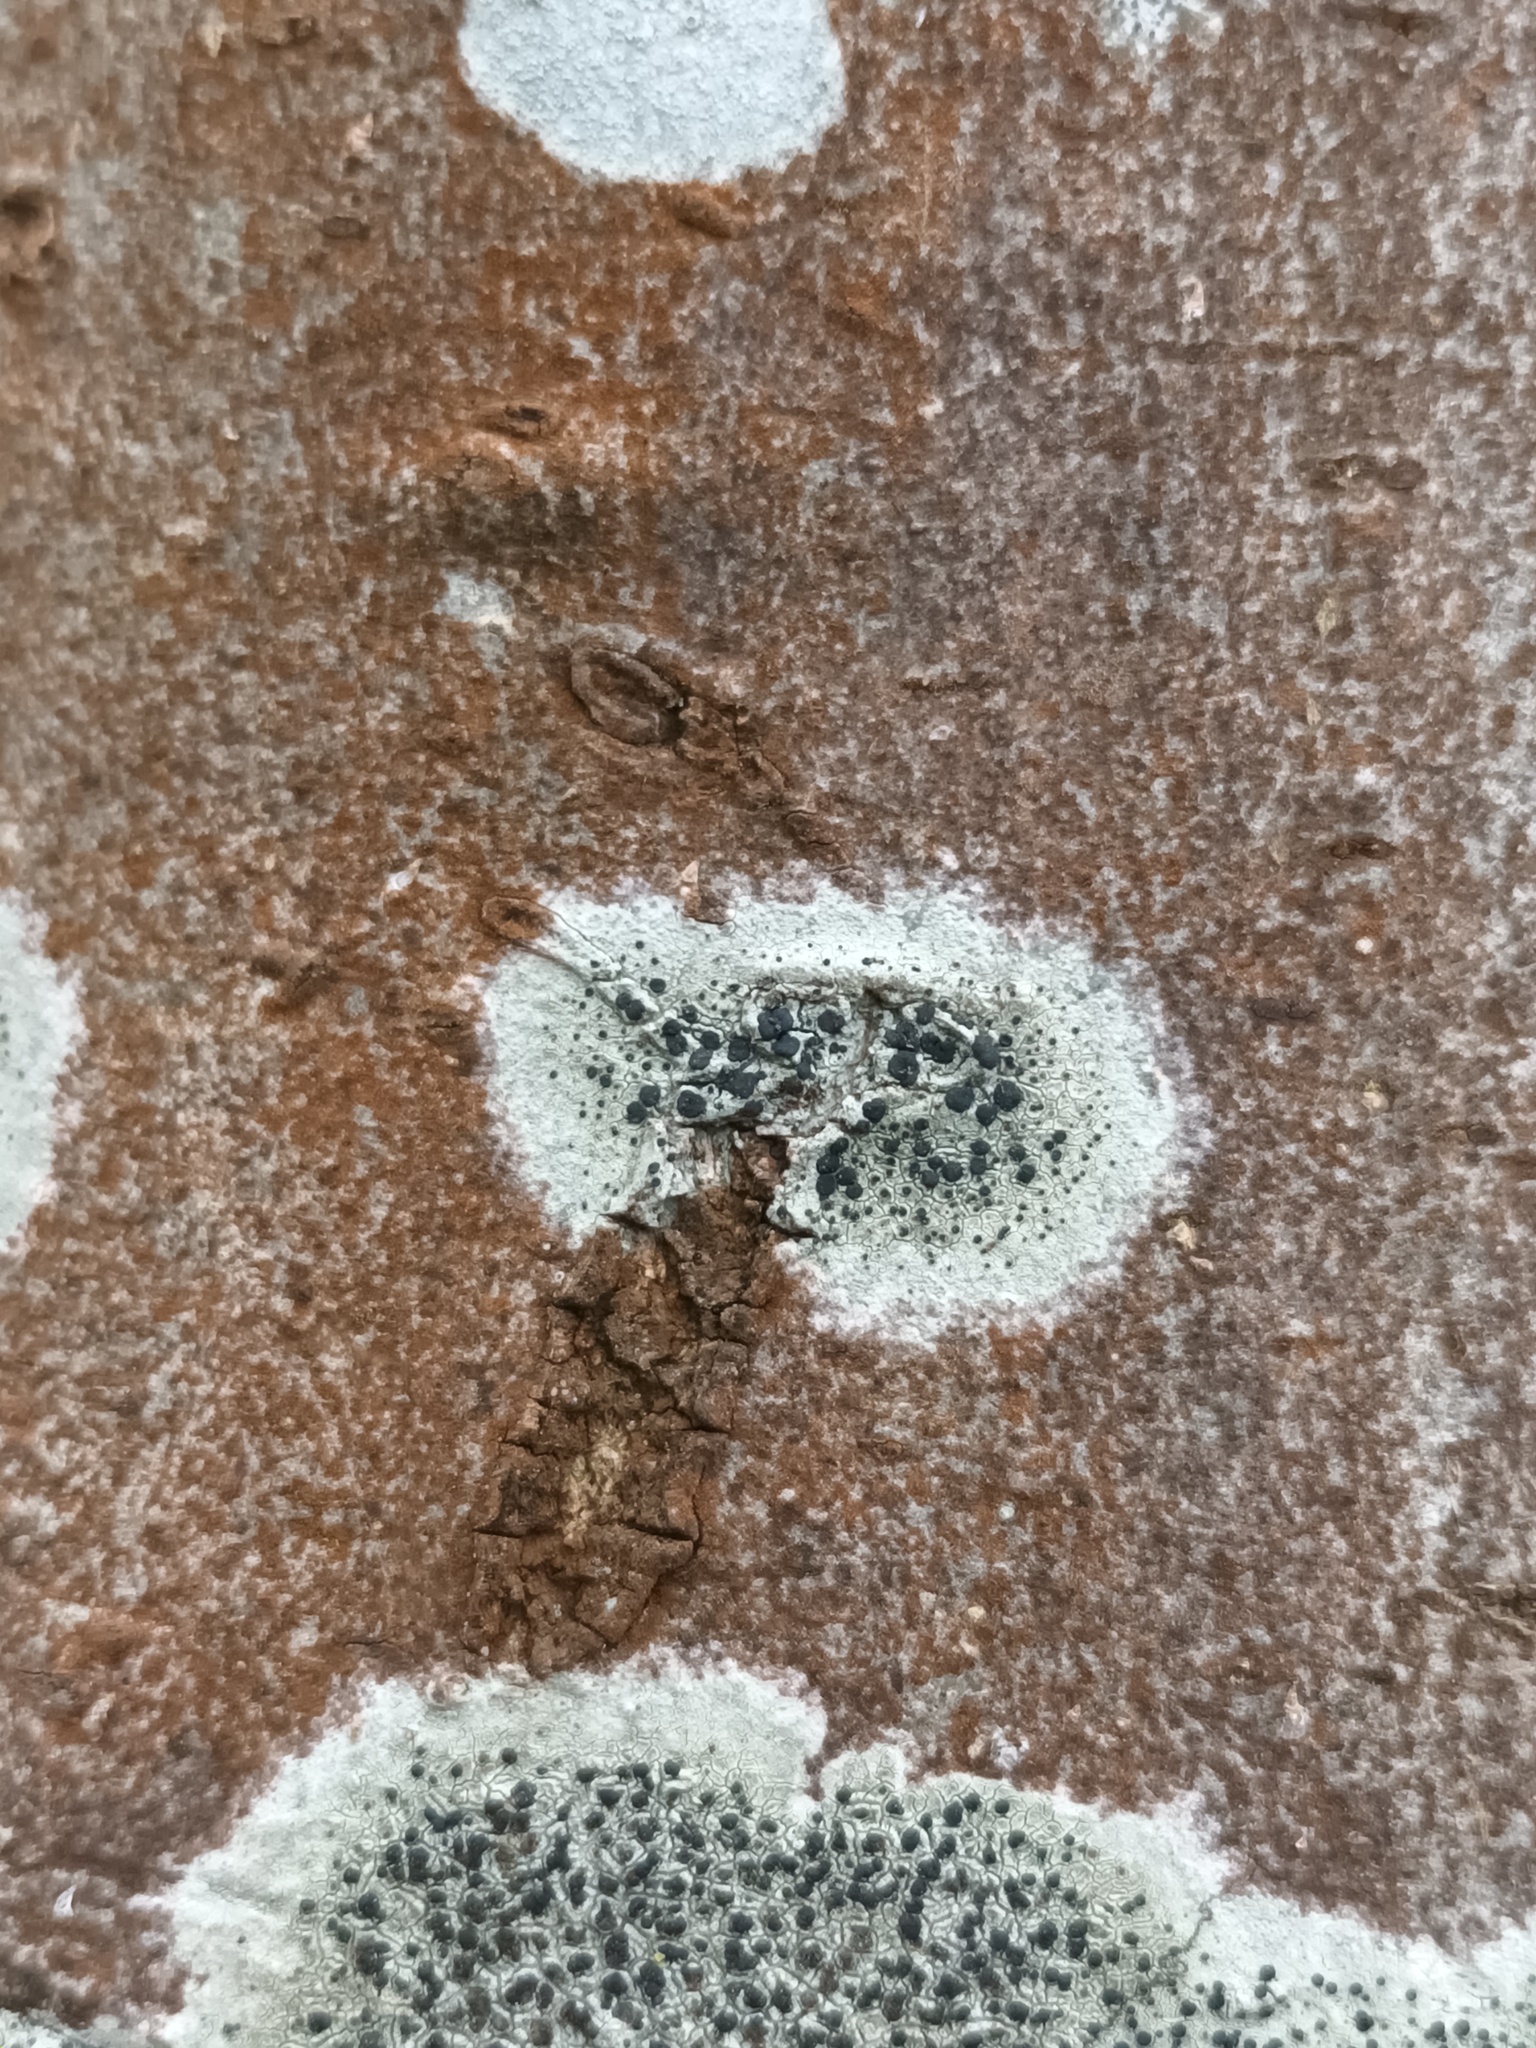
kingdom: Fungi
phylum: Ascomycota
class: Lecanoromycetes
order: Lecanorales
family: Lecanoraceae
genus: Lecidella
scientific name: Lecidella elaeochroma
